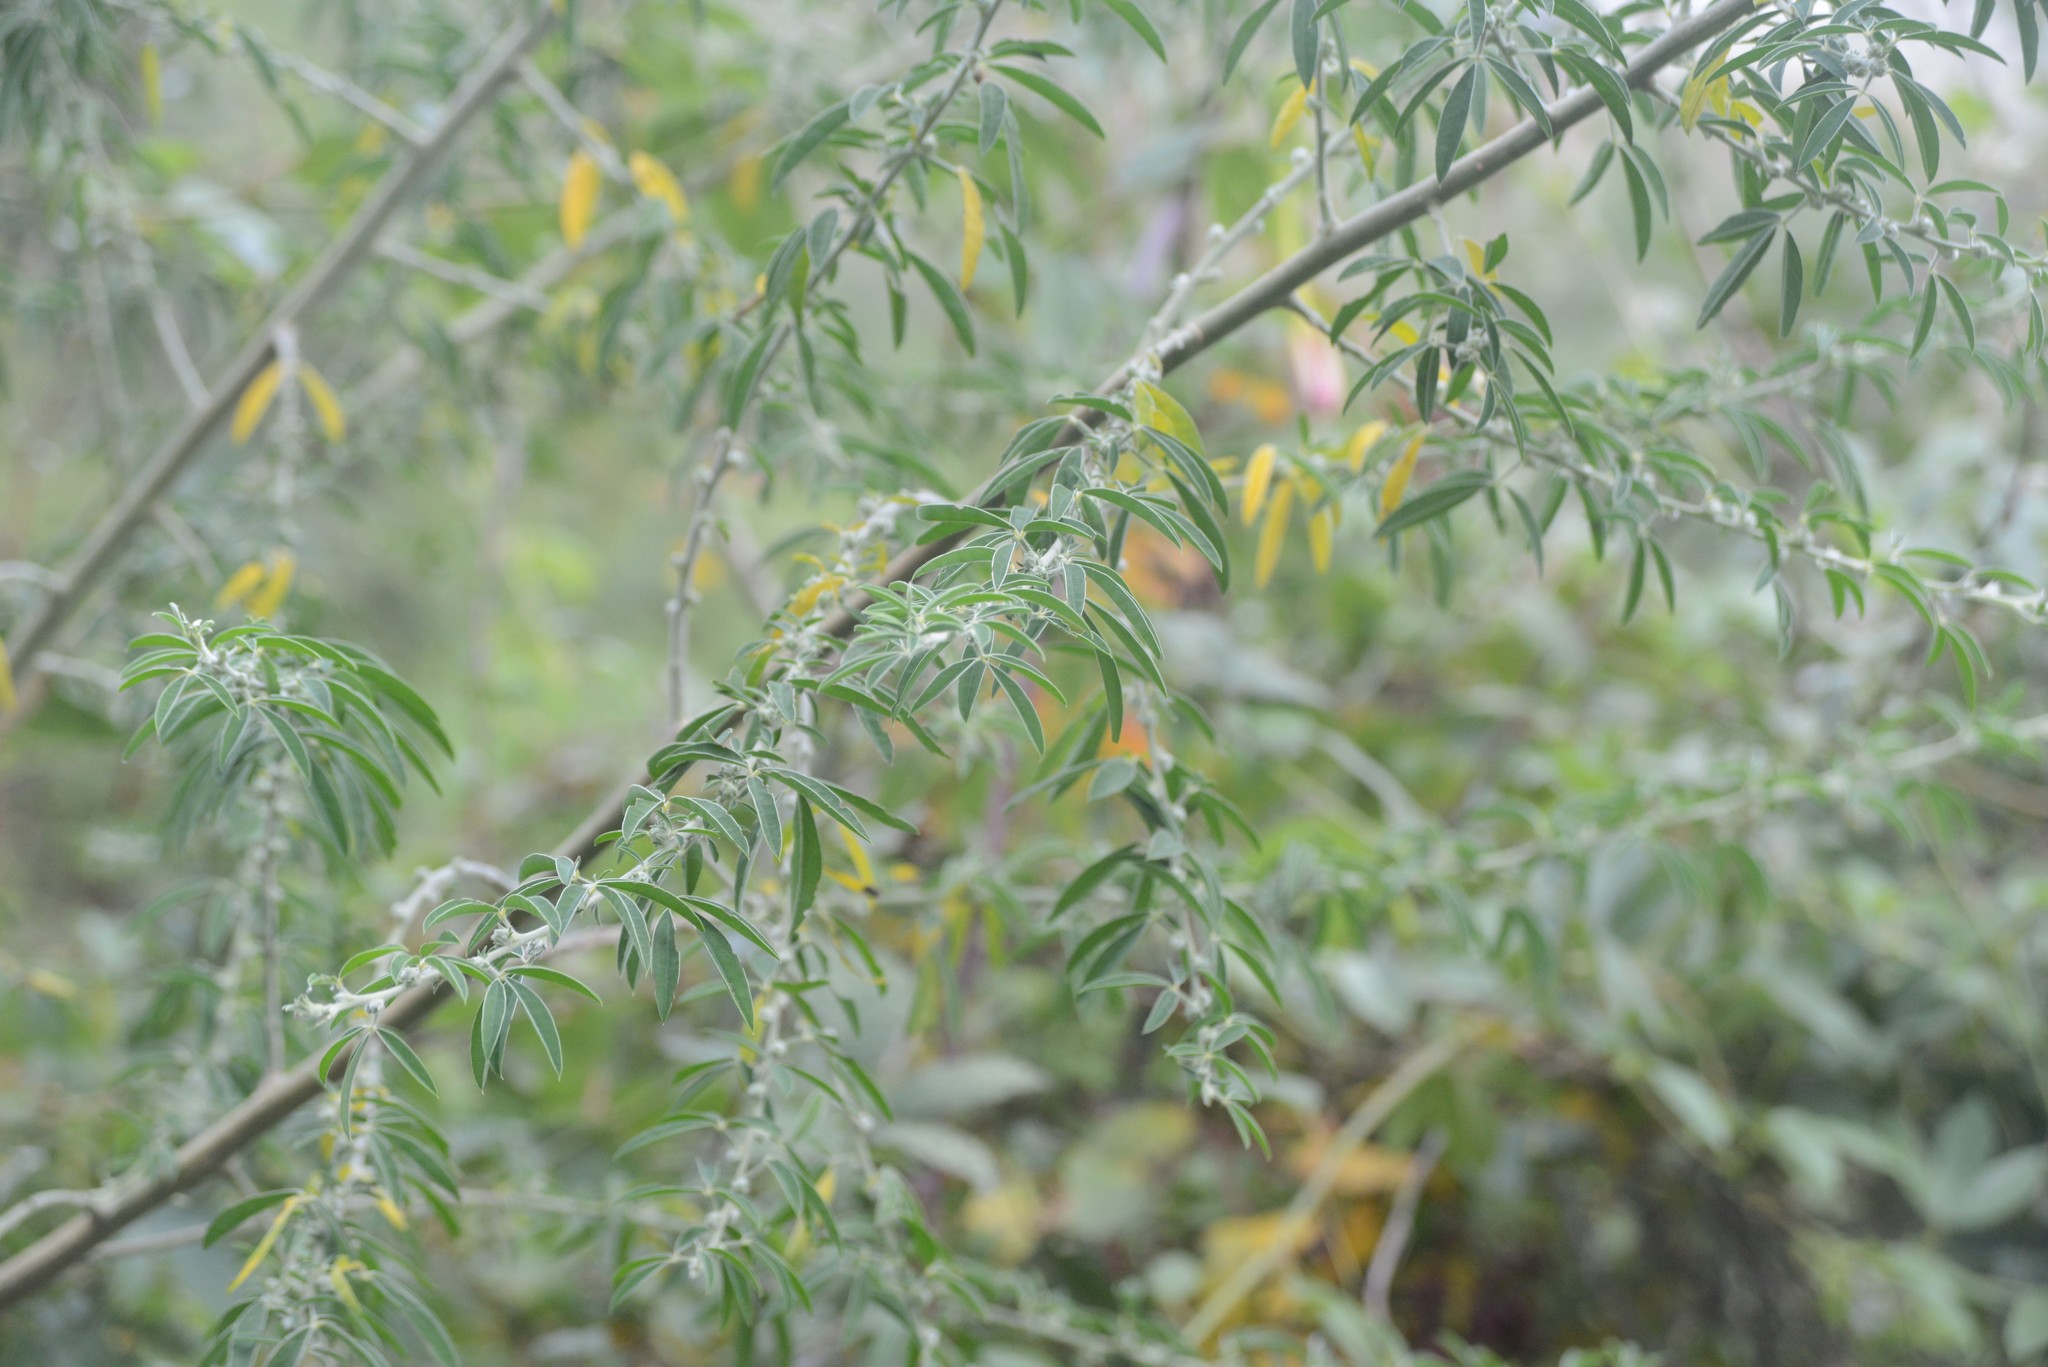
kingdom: Plantae
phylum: Tracheophyta
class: Magnoliopsida
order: Fabales
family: Fabaceae
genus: Chamaecytisus
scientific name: Chamaecytisus prolifer
